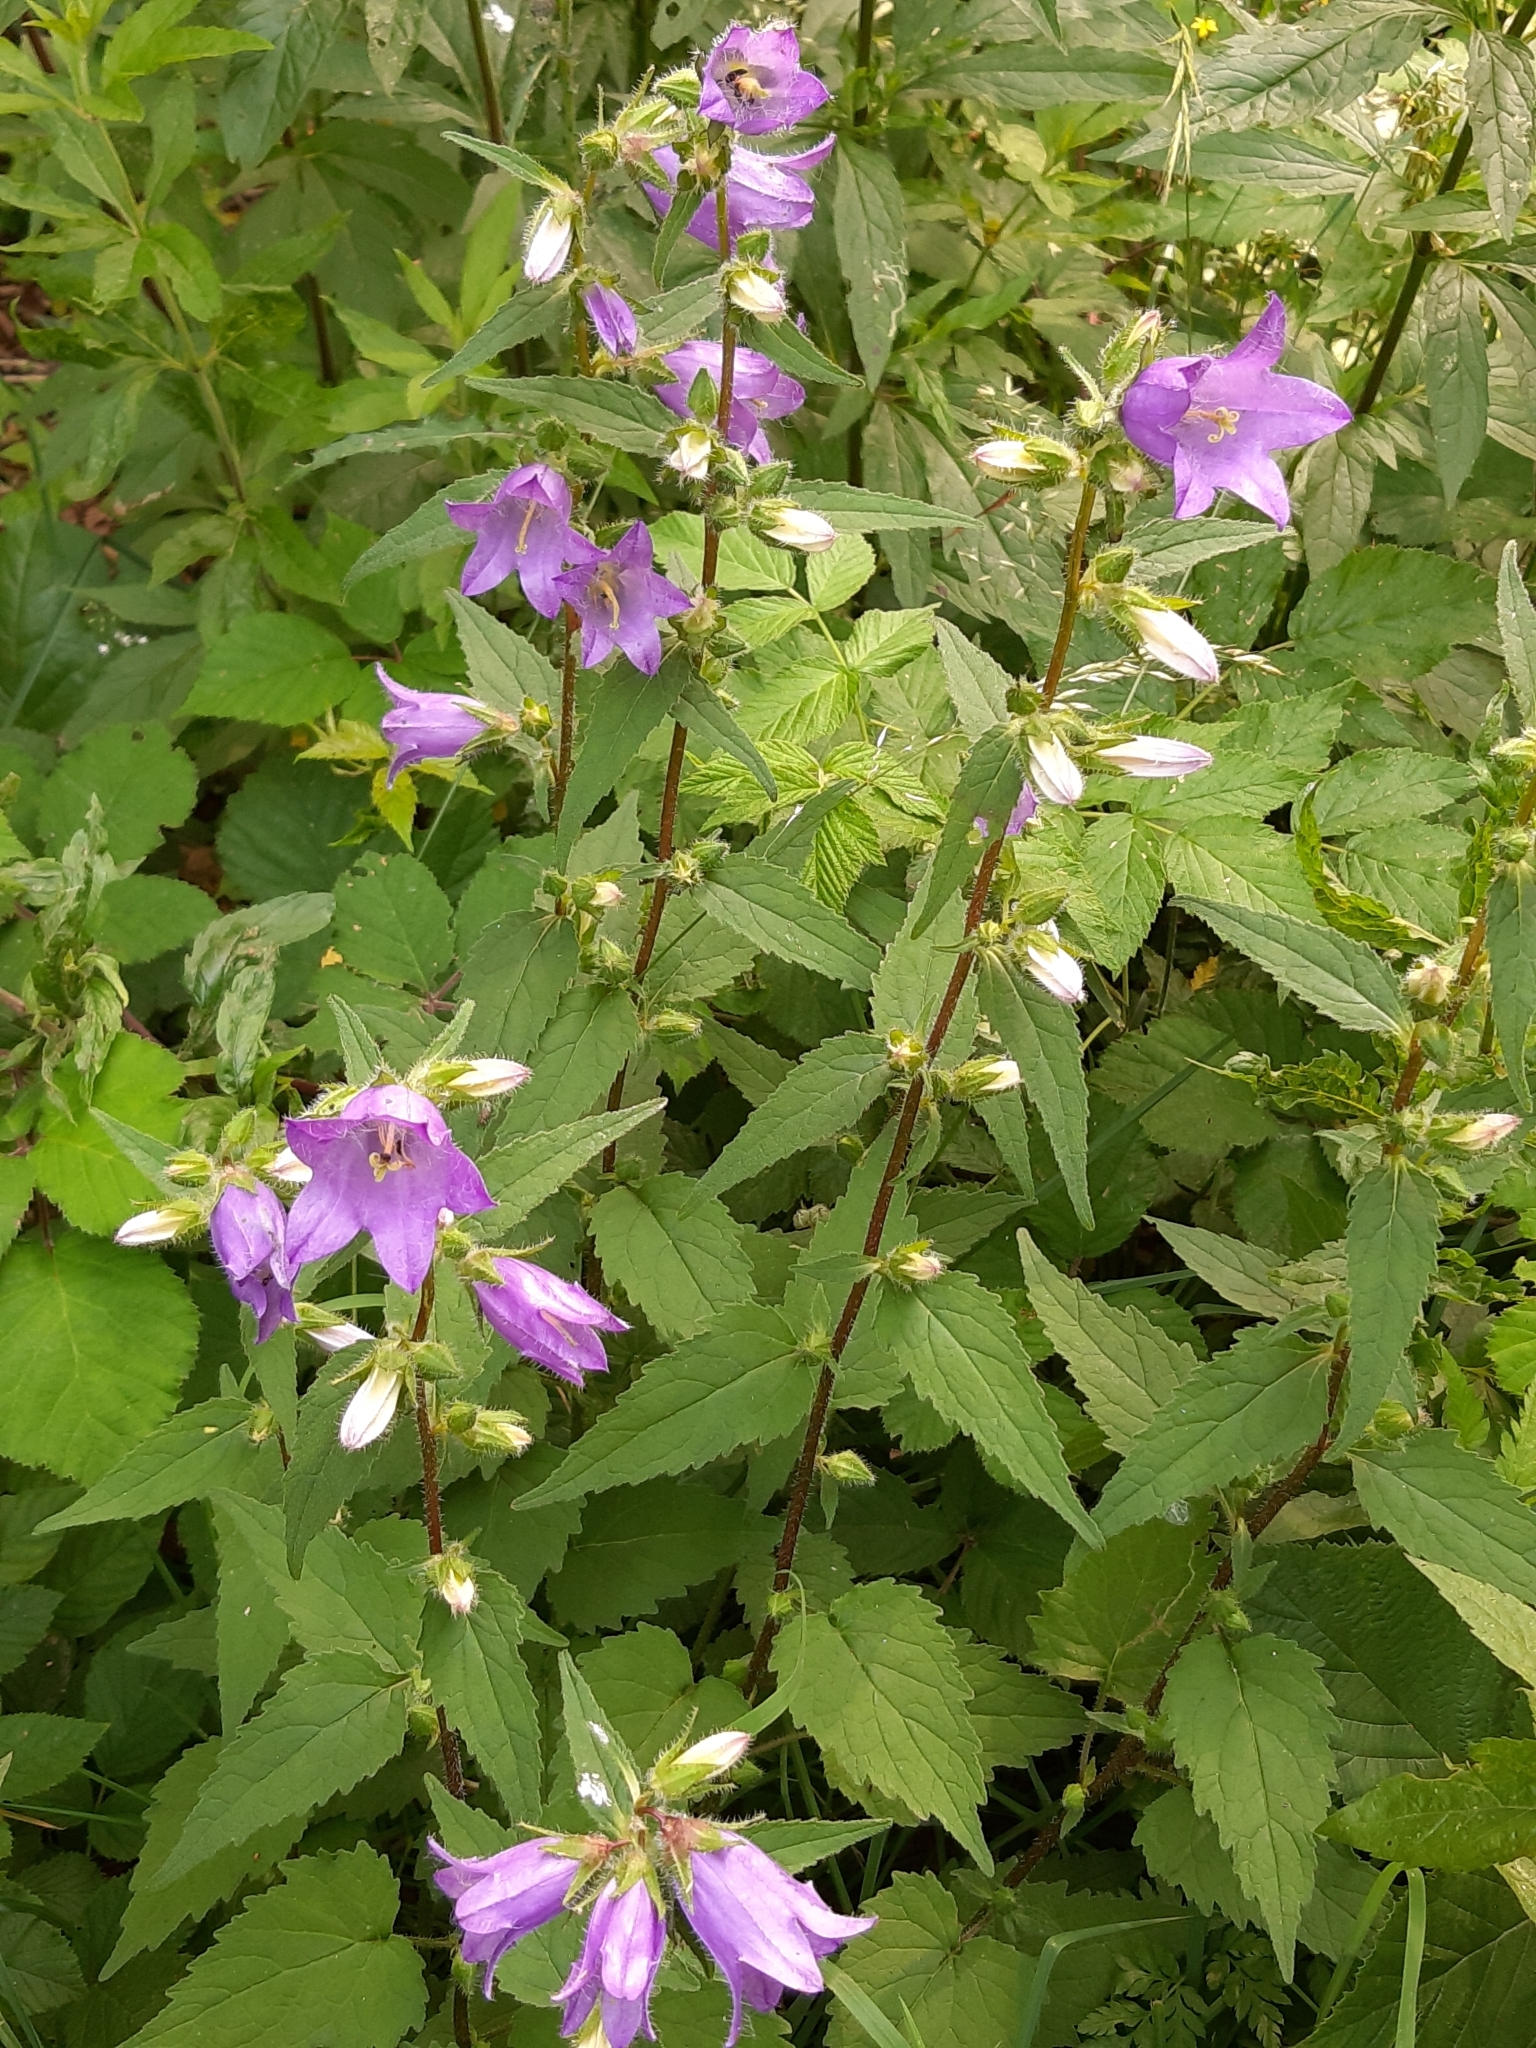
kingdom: Plantae
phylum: Tracheophyta
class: Magnoliopsida
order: Asterales
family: Campanulaceae
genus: Campanula
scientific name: Campanula trachelium
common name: Nettle-leaved bellflower
